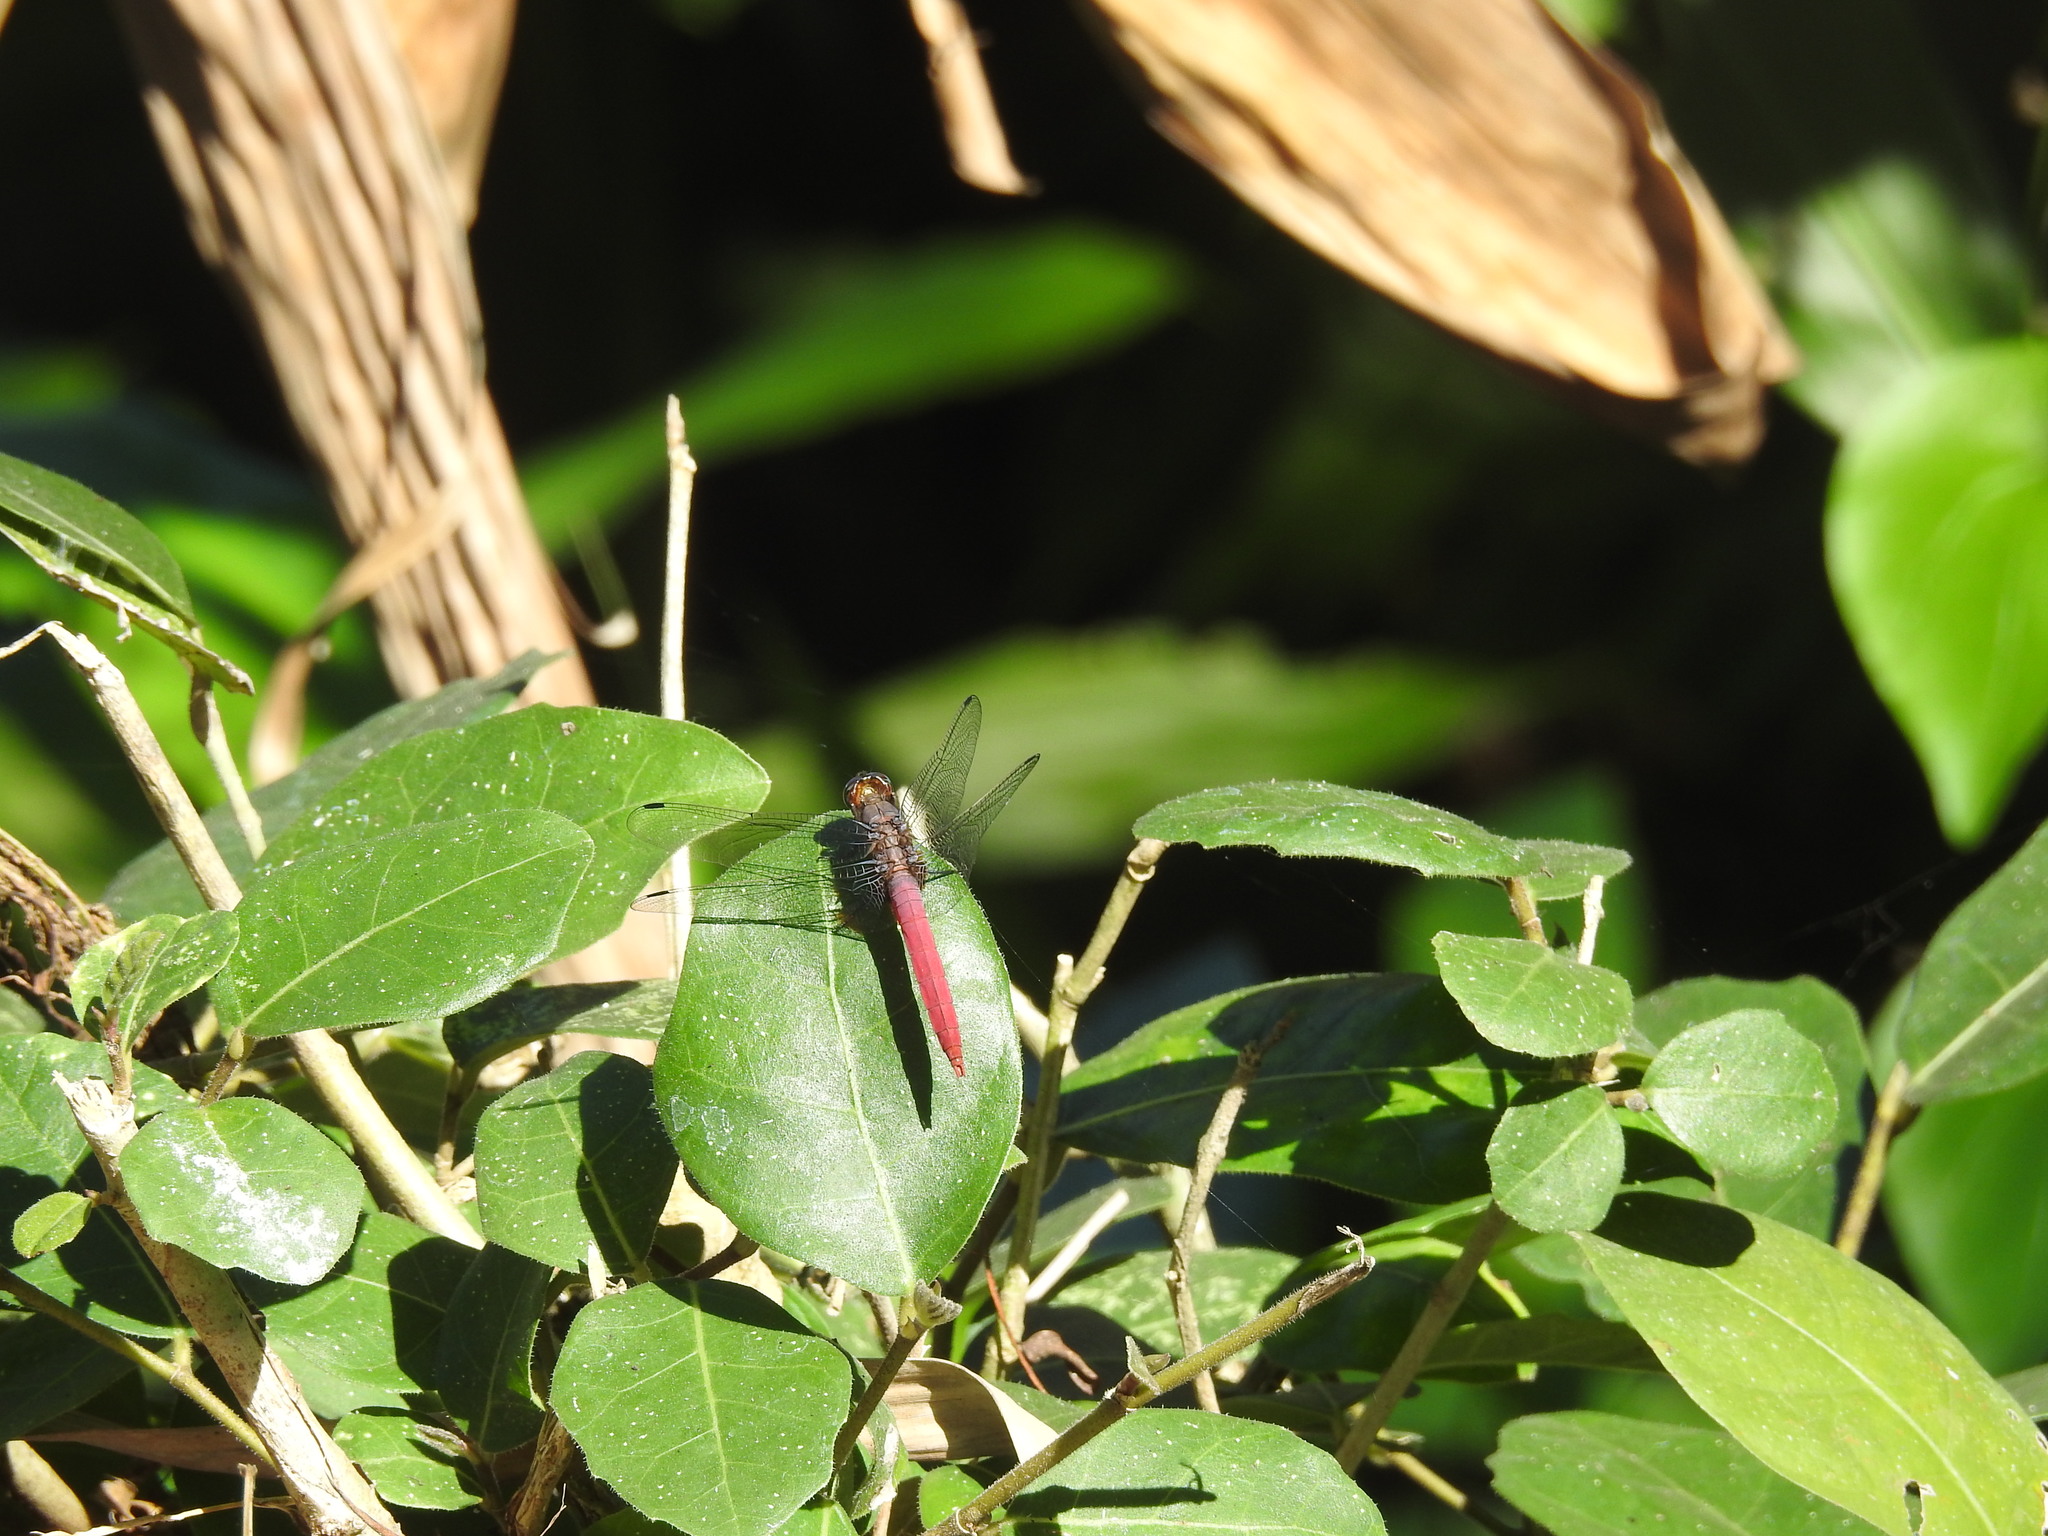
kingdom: Animalia
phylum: Arthropoda
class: Insecta
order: Odonata
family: Libellulidae
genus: Orthetrum
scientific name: Orthetrum pruinosum
